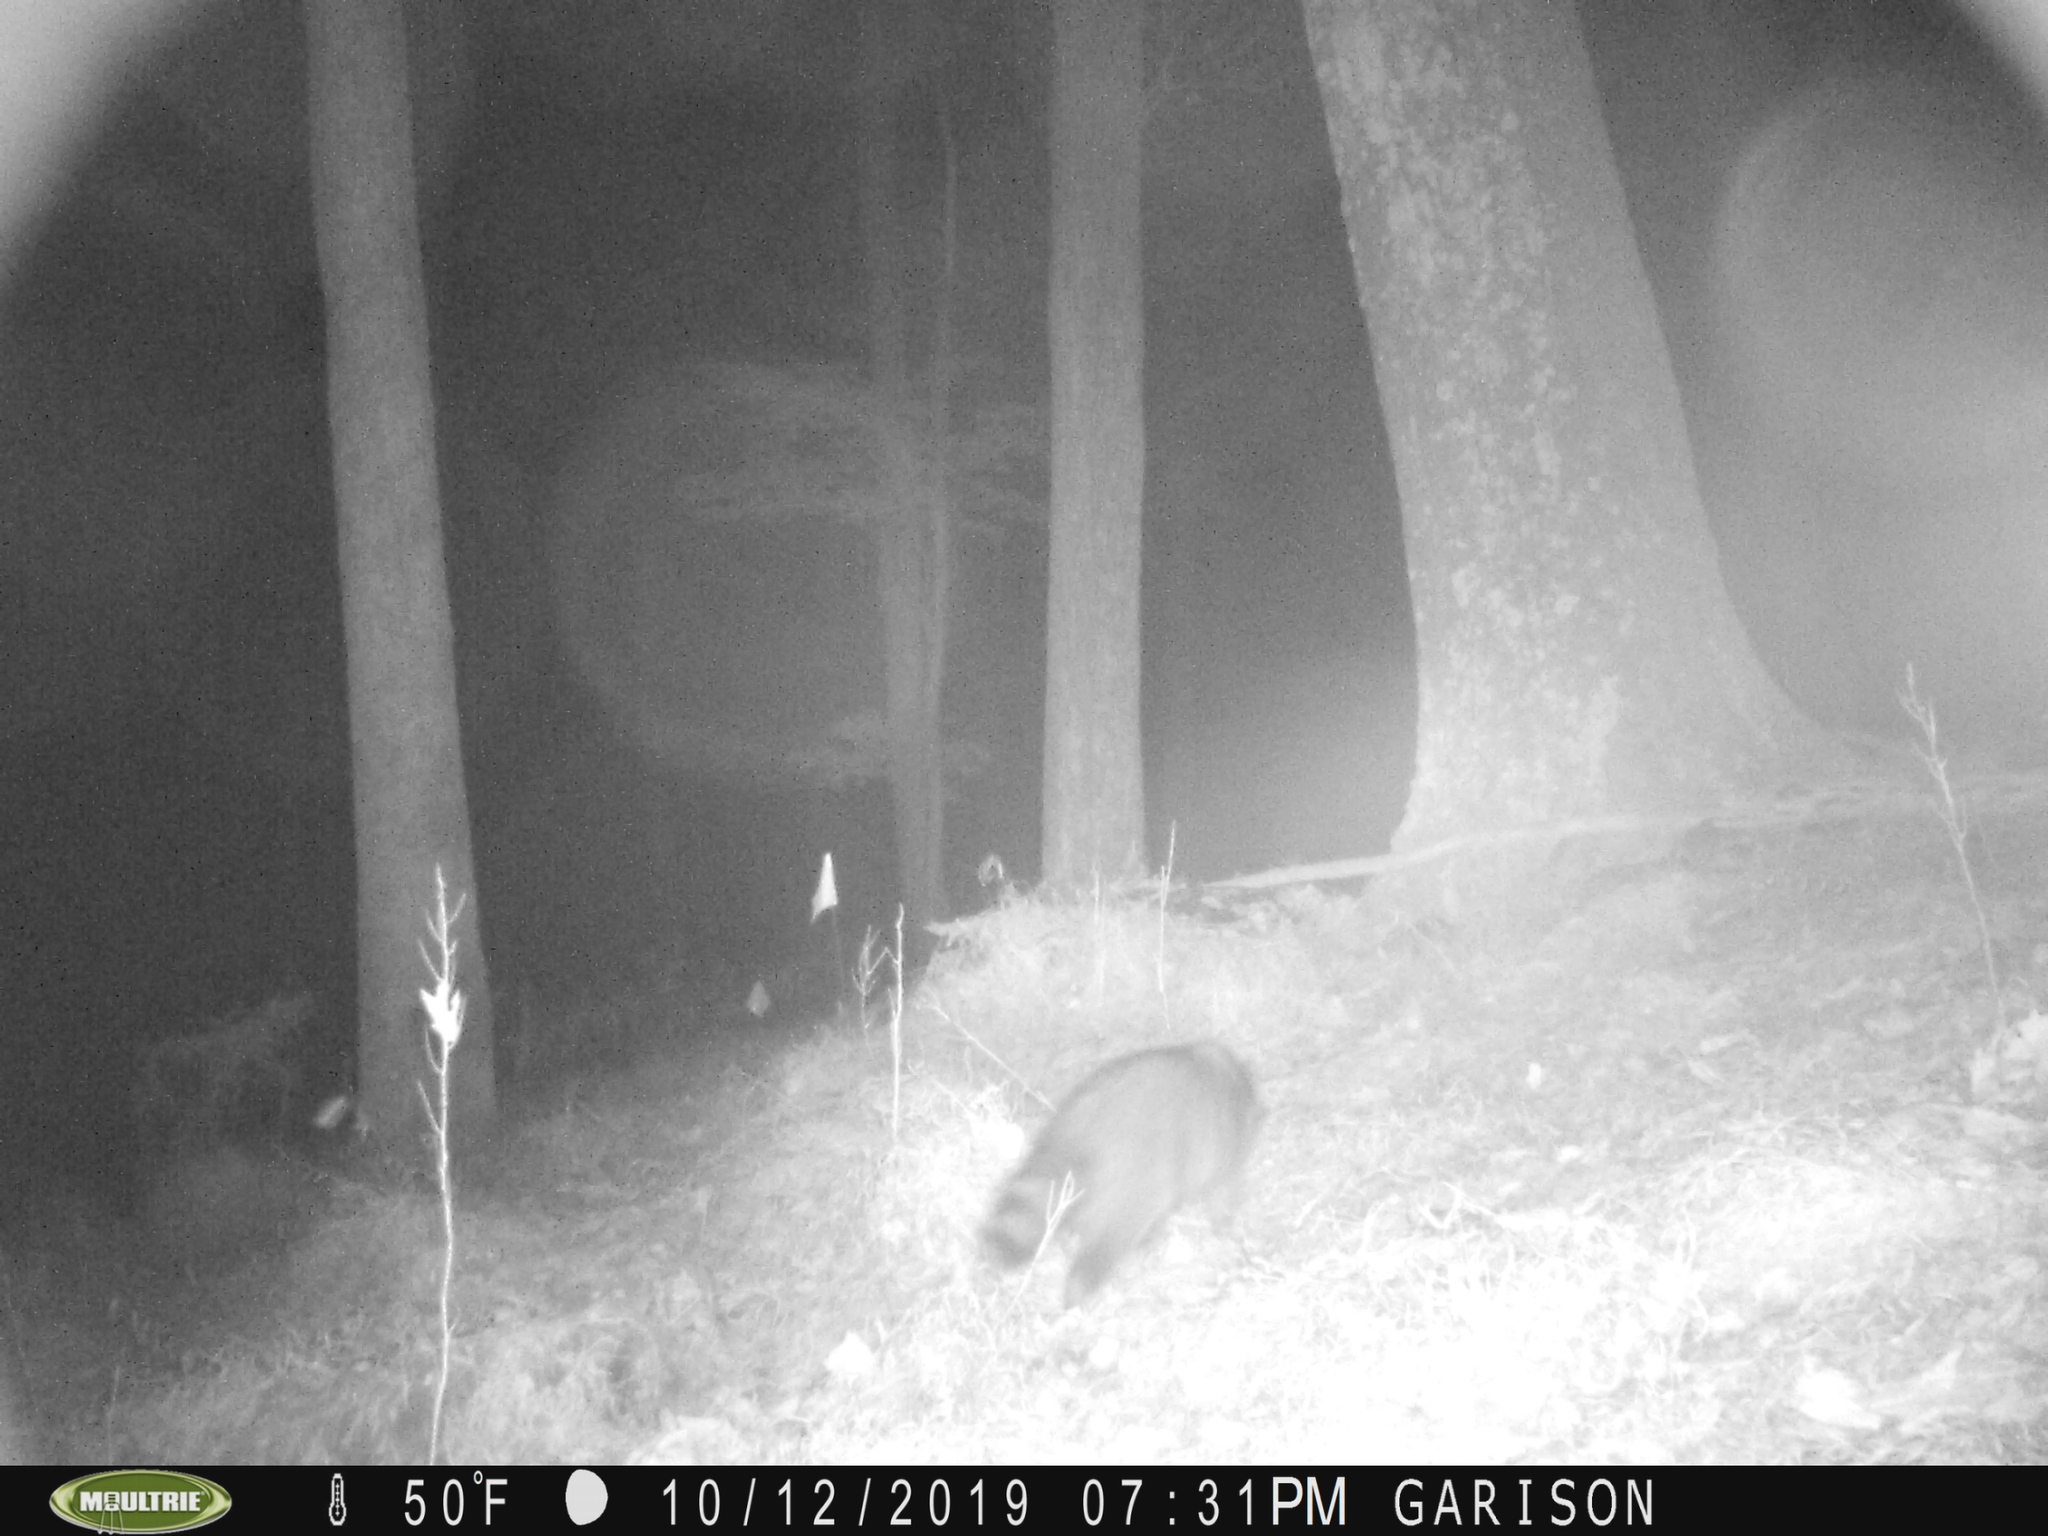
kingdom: Animalia
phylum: Chordata
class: Mammalia
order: Carnivora
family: Procyonidae
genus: Procyon
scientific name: Procyon lotor
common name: Raccoon
